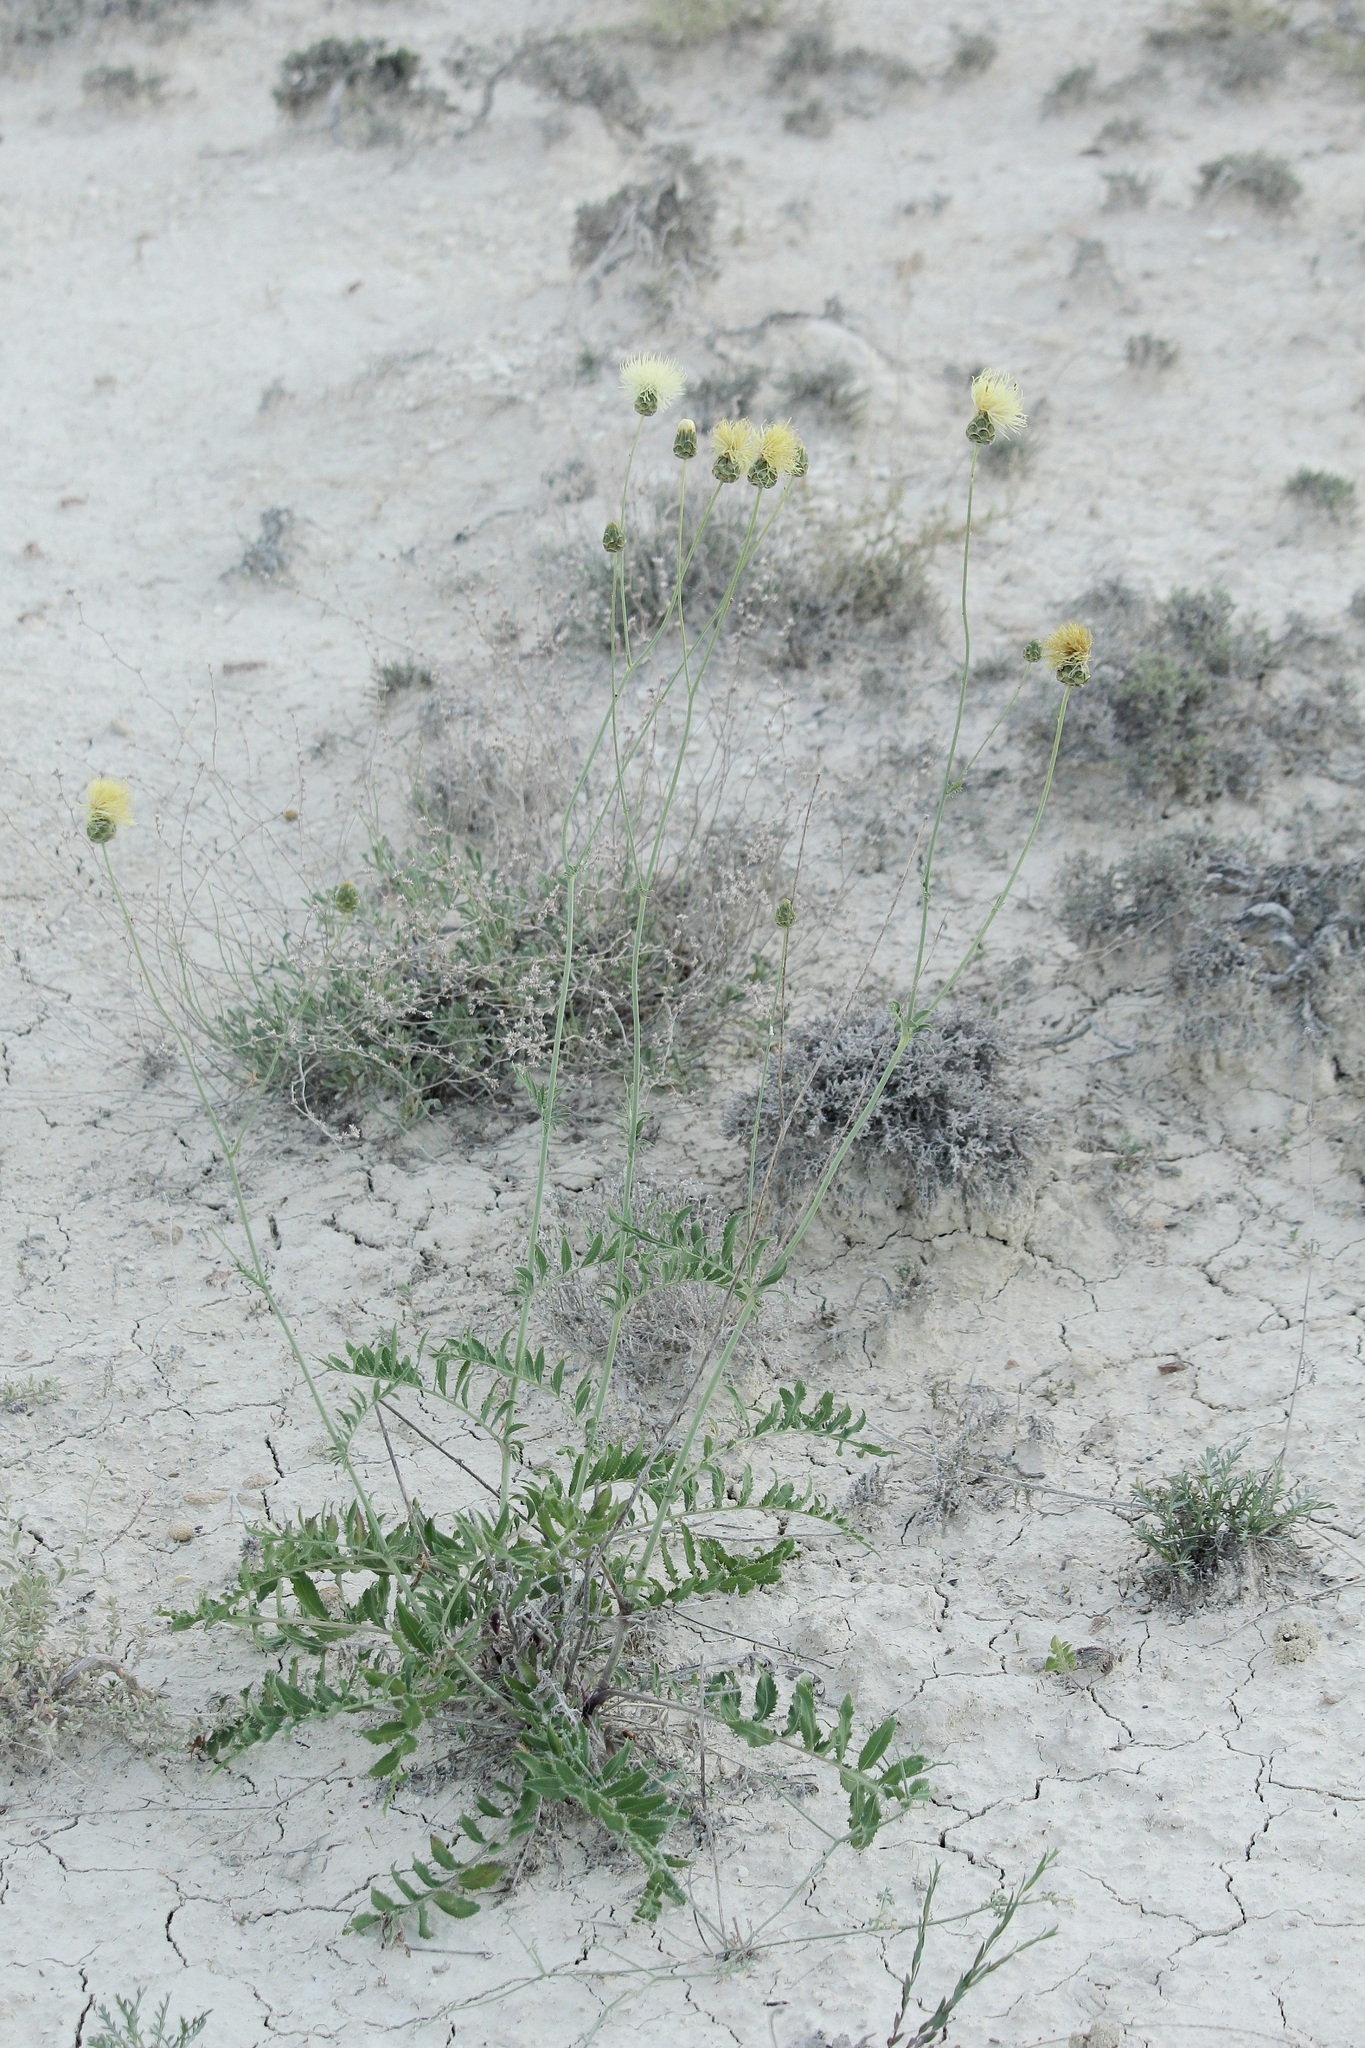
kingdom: Plantae
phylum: Tracheophyta
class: Magnoliopsida
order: Asterales
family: Asteraceae
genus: Rhaponticoides
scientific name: Rhaponticoides ruthenica
